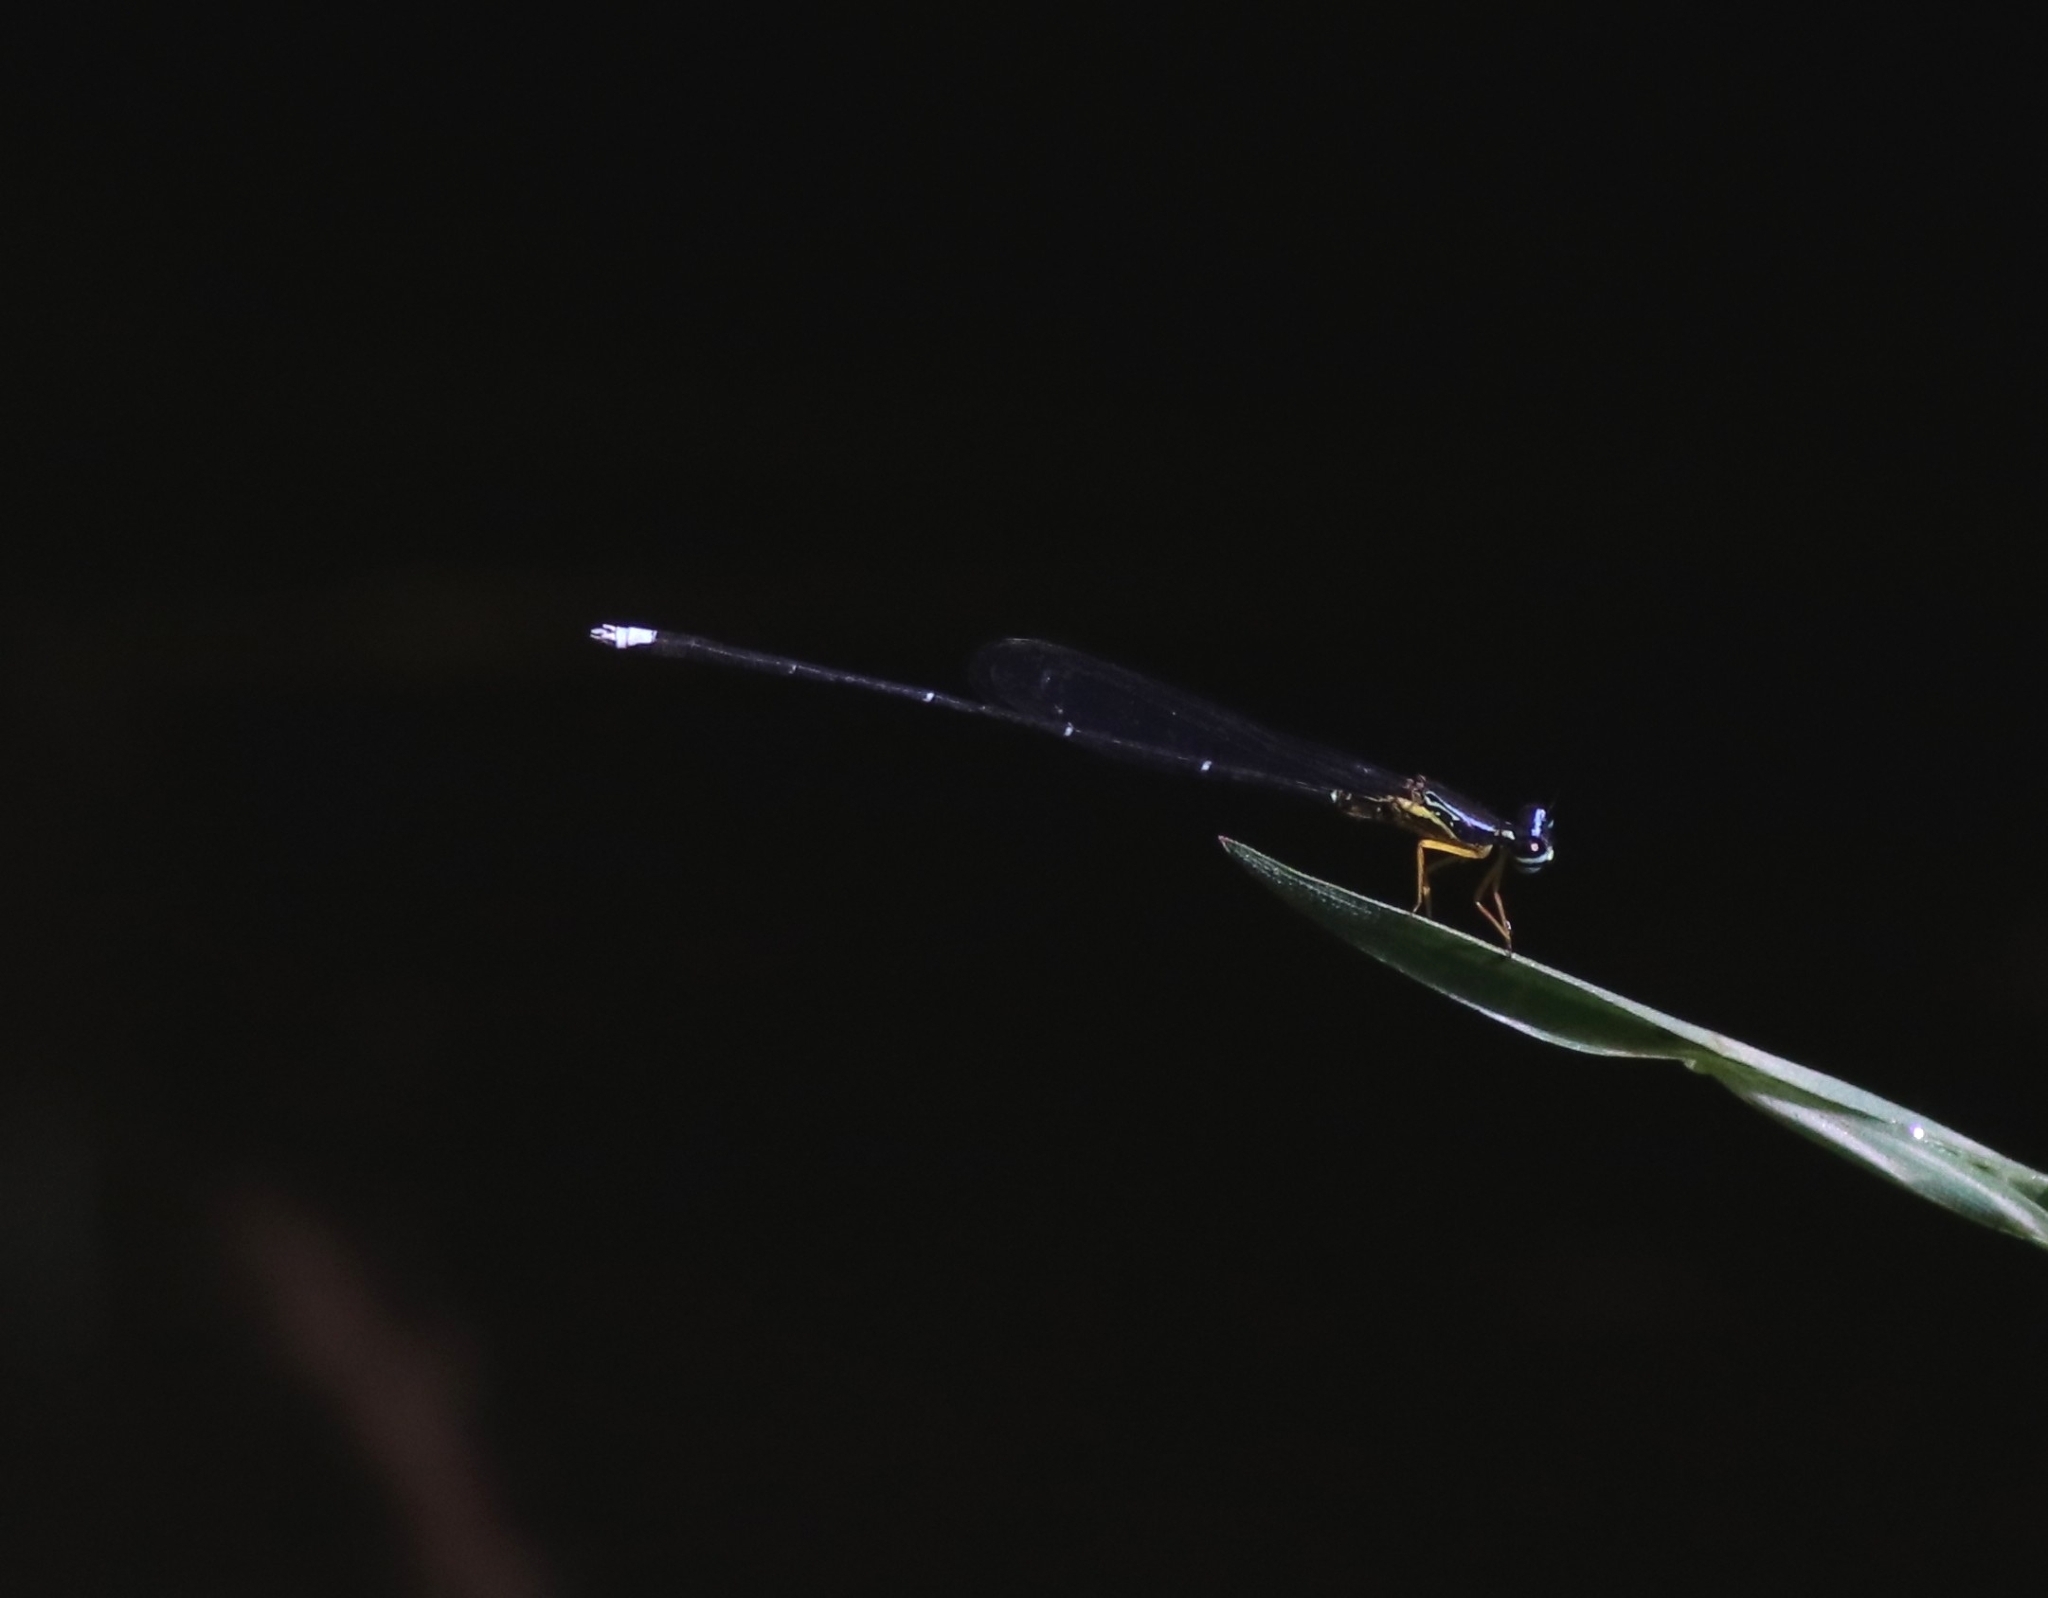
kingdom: Animalia
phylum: Arthropoda
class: Insecta
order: Odonata
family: Platycnemididae
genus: Copera
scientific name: Copera vittata
